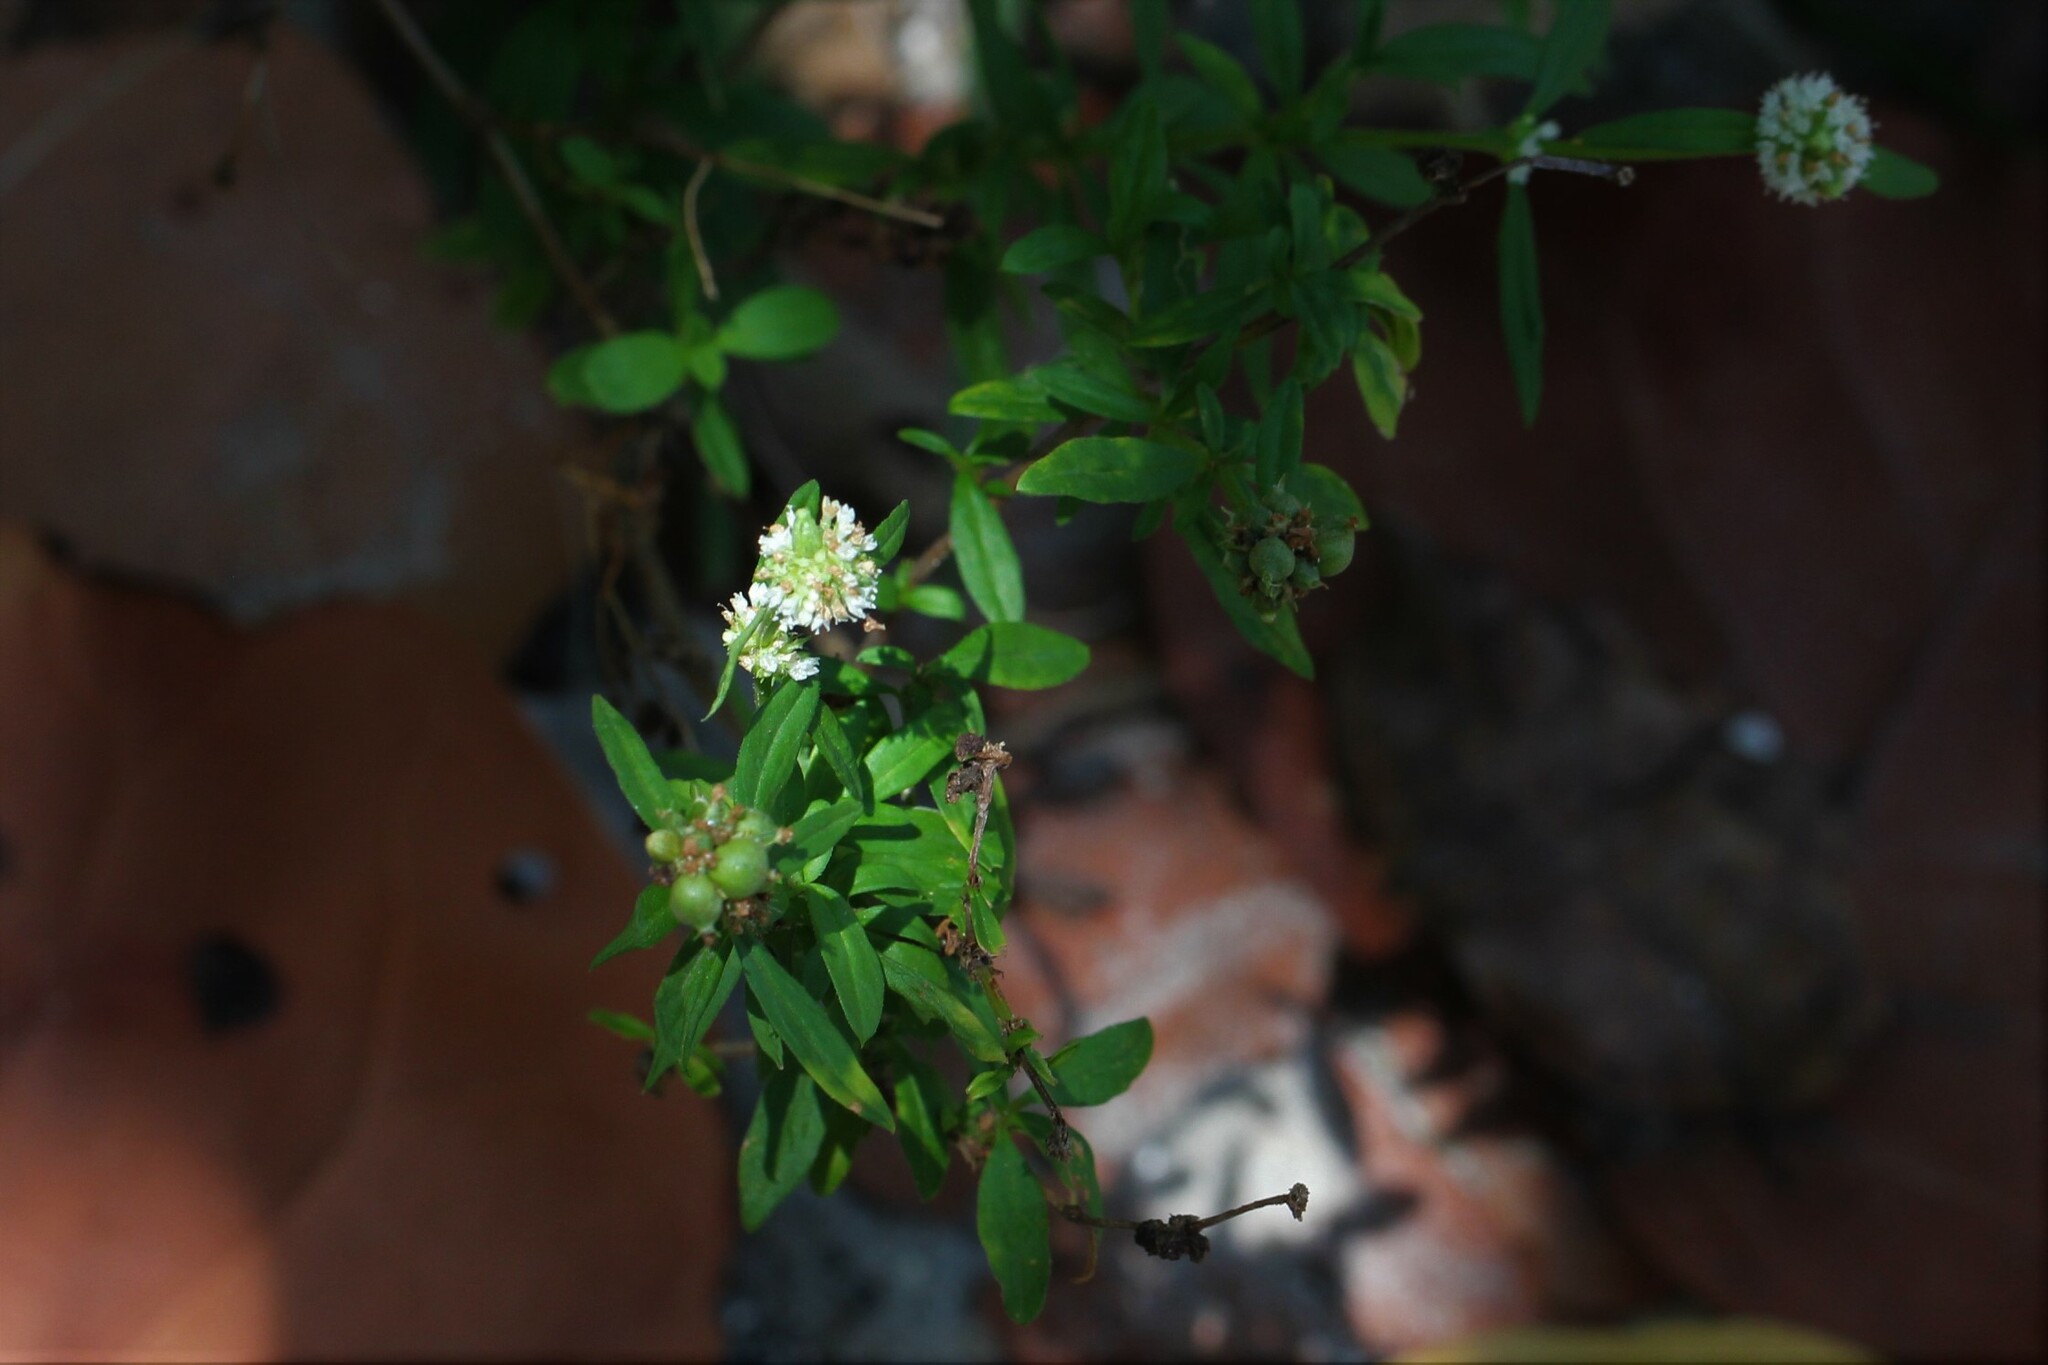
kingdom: Plantae
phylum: Tracheophyta
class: Magnoliopsida
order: Gentianales
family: Rubiaceae
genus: Spermacoce
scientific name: Spermacoce verticillata
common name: Shrubby false buttonweed
